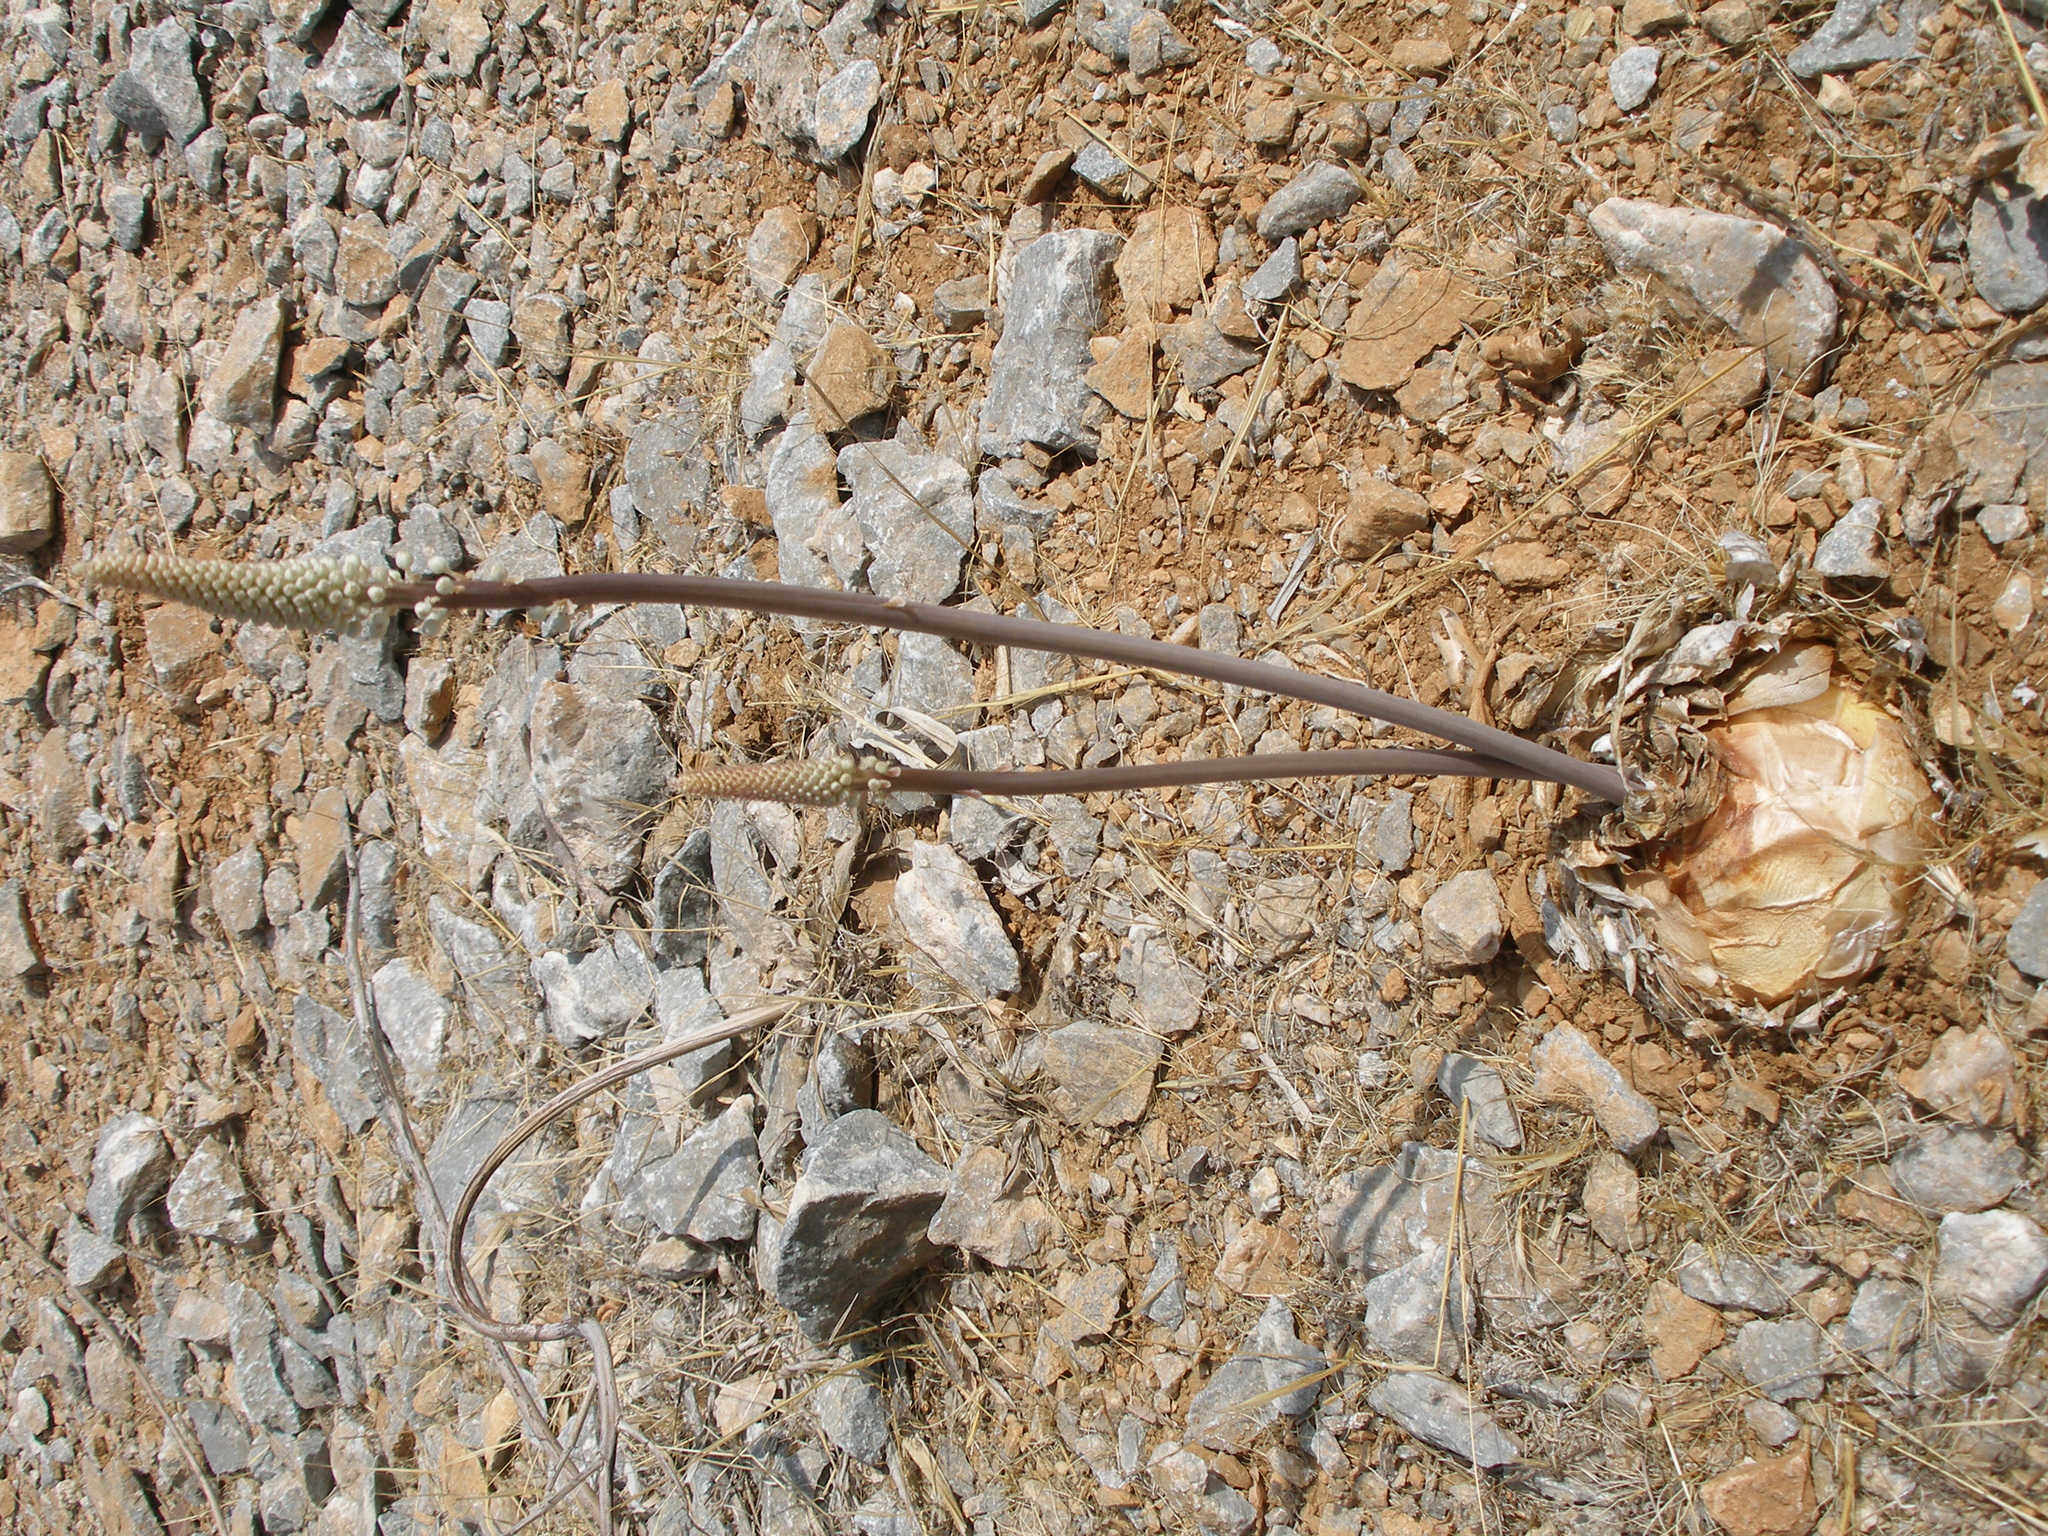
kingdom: Plantae
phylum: Tracheophyta
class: Liliopsida
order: Asparagales
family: Asparagaceae
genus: Drimia
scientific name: Drimia aphylla
